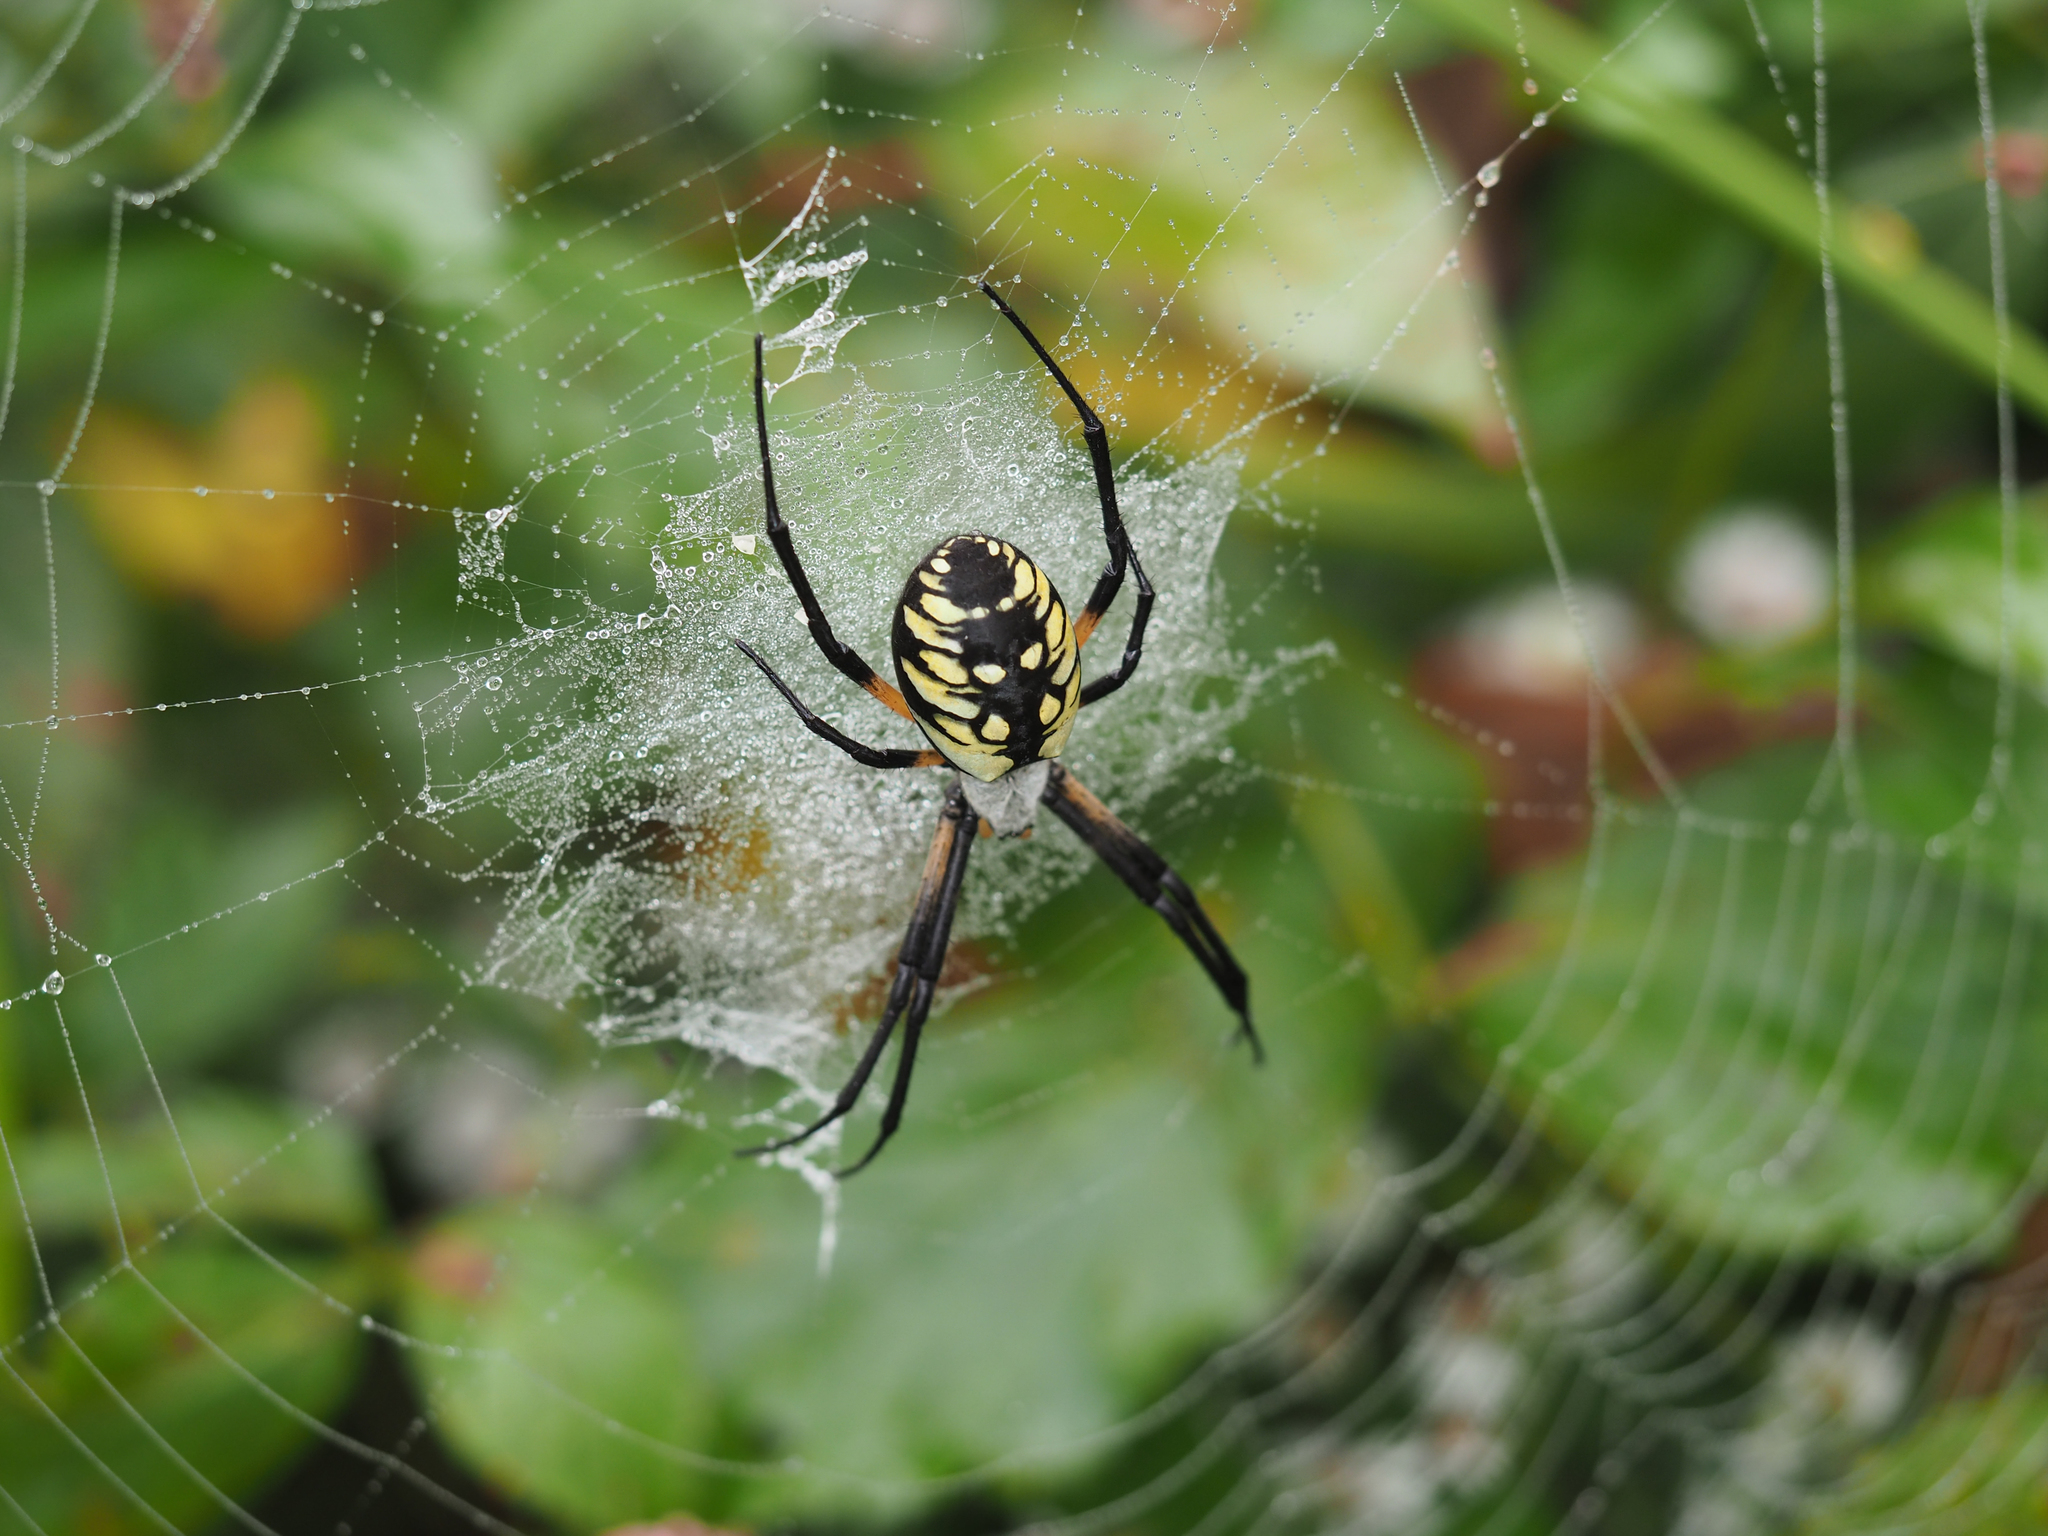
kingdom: Animalia
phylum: Arthropoda
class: Arachnida
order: Araneae
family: Araneidae
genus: Argiope
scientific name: Argiope aurantia
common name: Orb weavers
